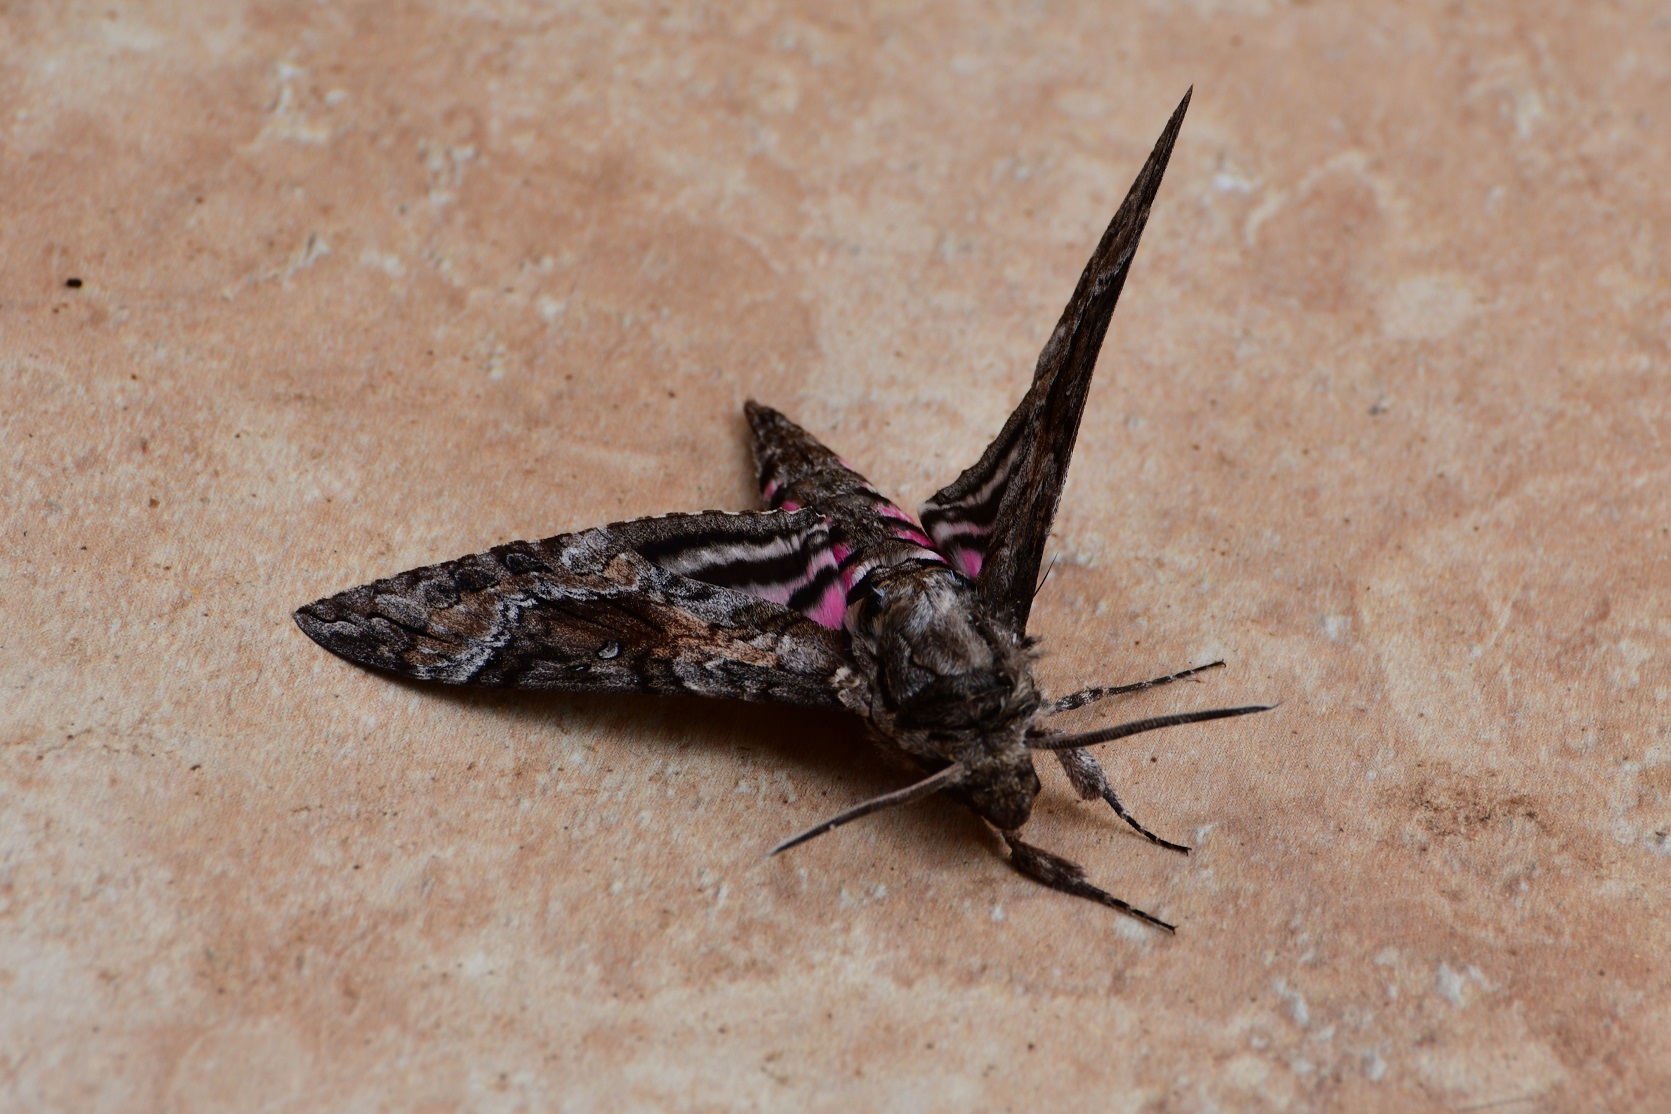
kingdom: Animalia
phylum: Arthropoda
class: Insecta
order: Lepidoptera
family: Sphingidae
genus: Agrius
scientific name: Agrius cingulata
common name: Pink-spotted hawkmoth
